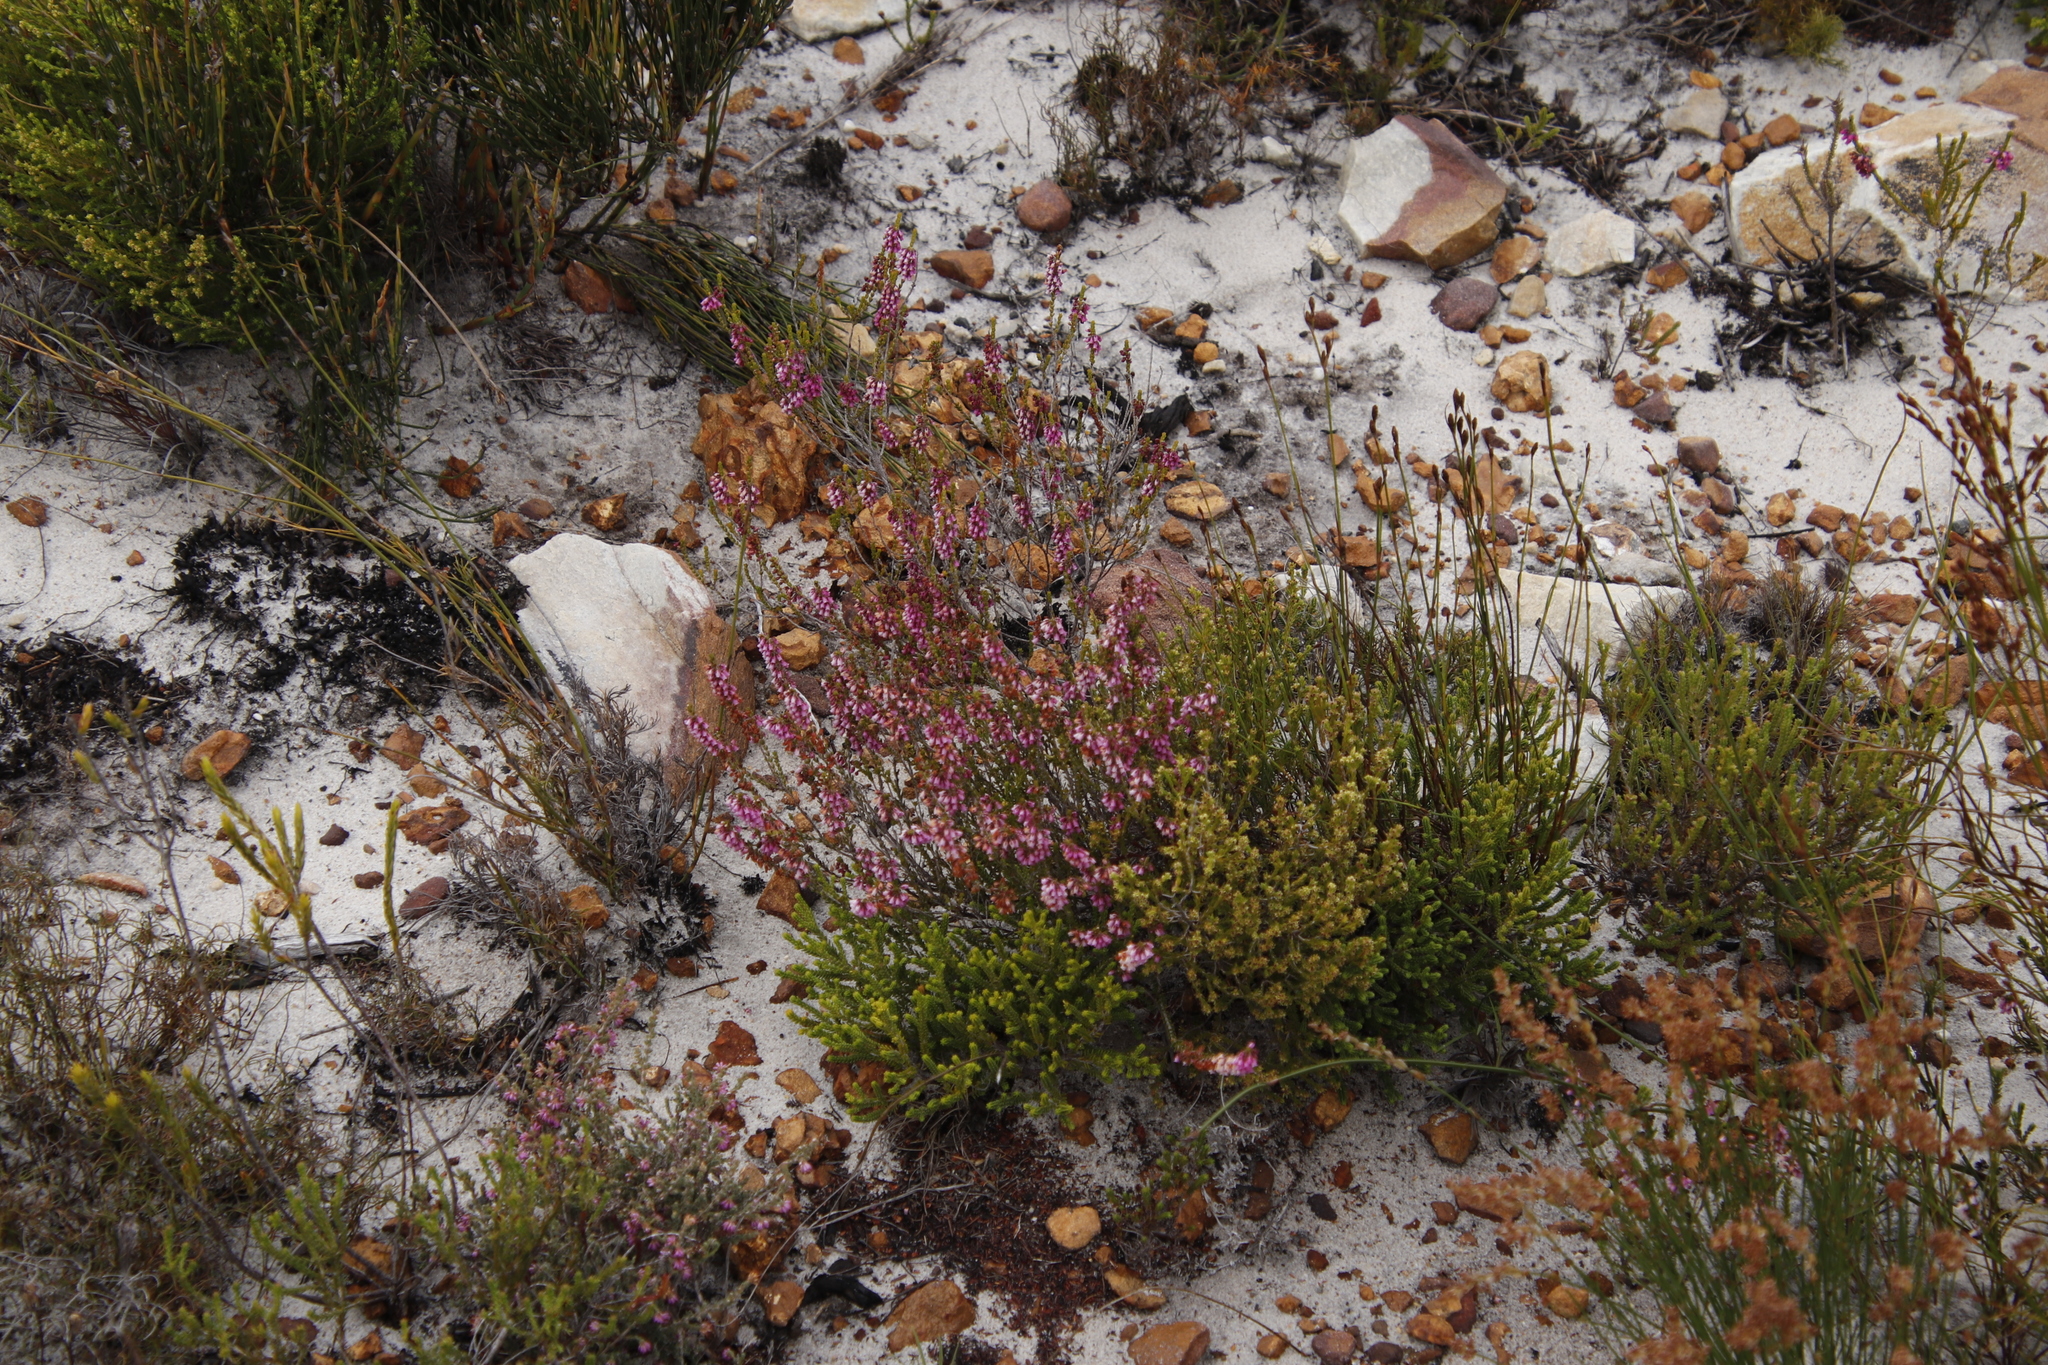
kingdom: Plantae
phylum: Tracheophyta
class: Magnoliopsida
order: Ericales
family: Ericaceae
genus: Erica
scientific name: Erica pulchella
